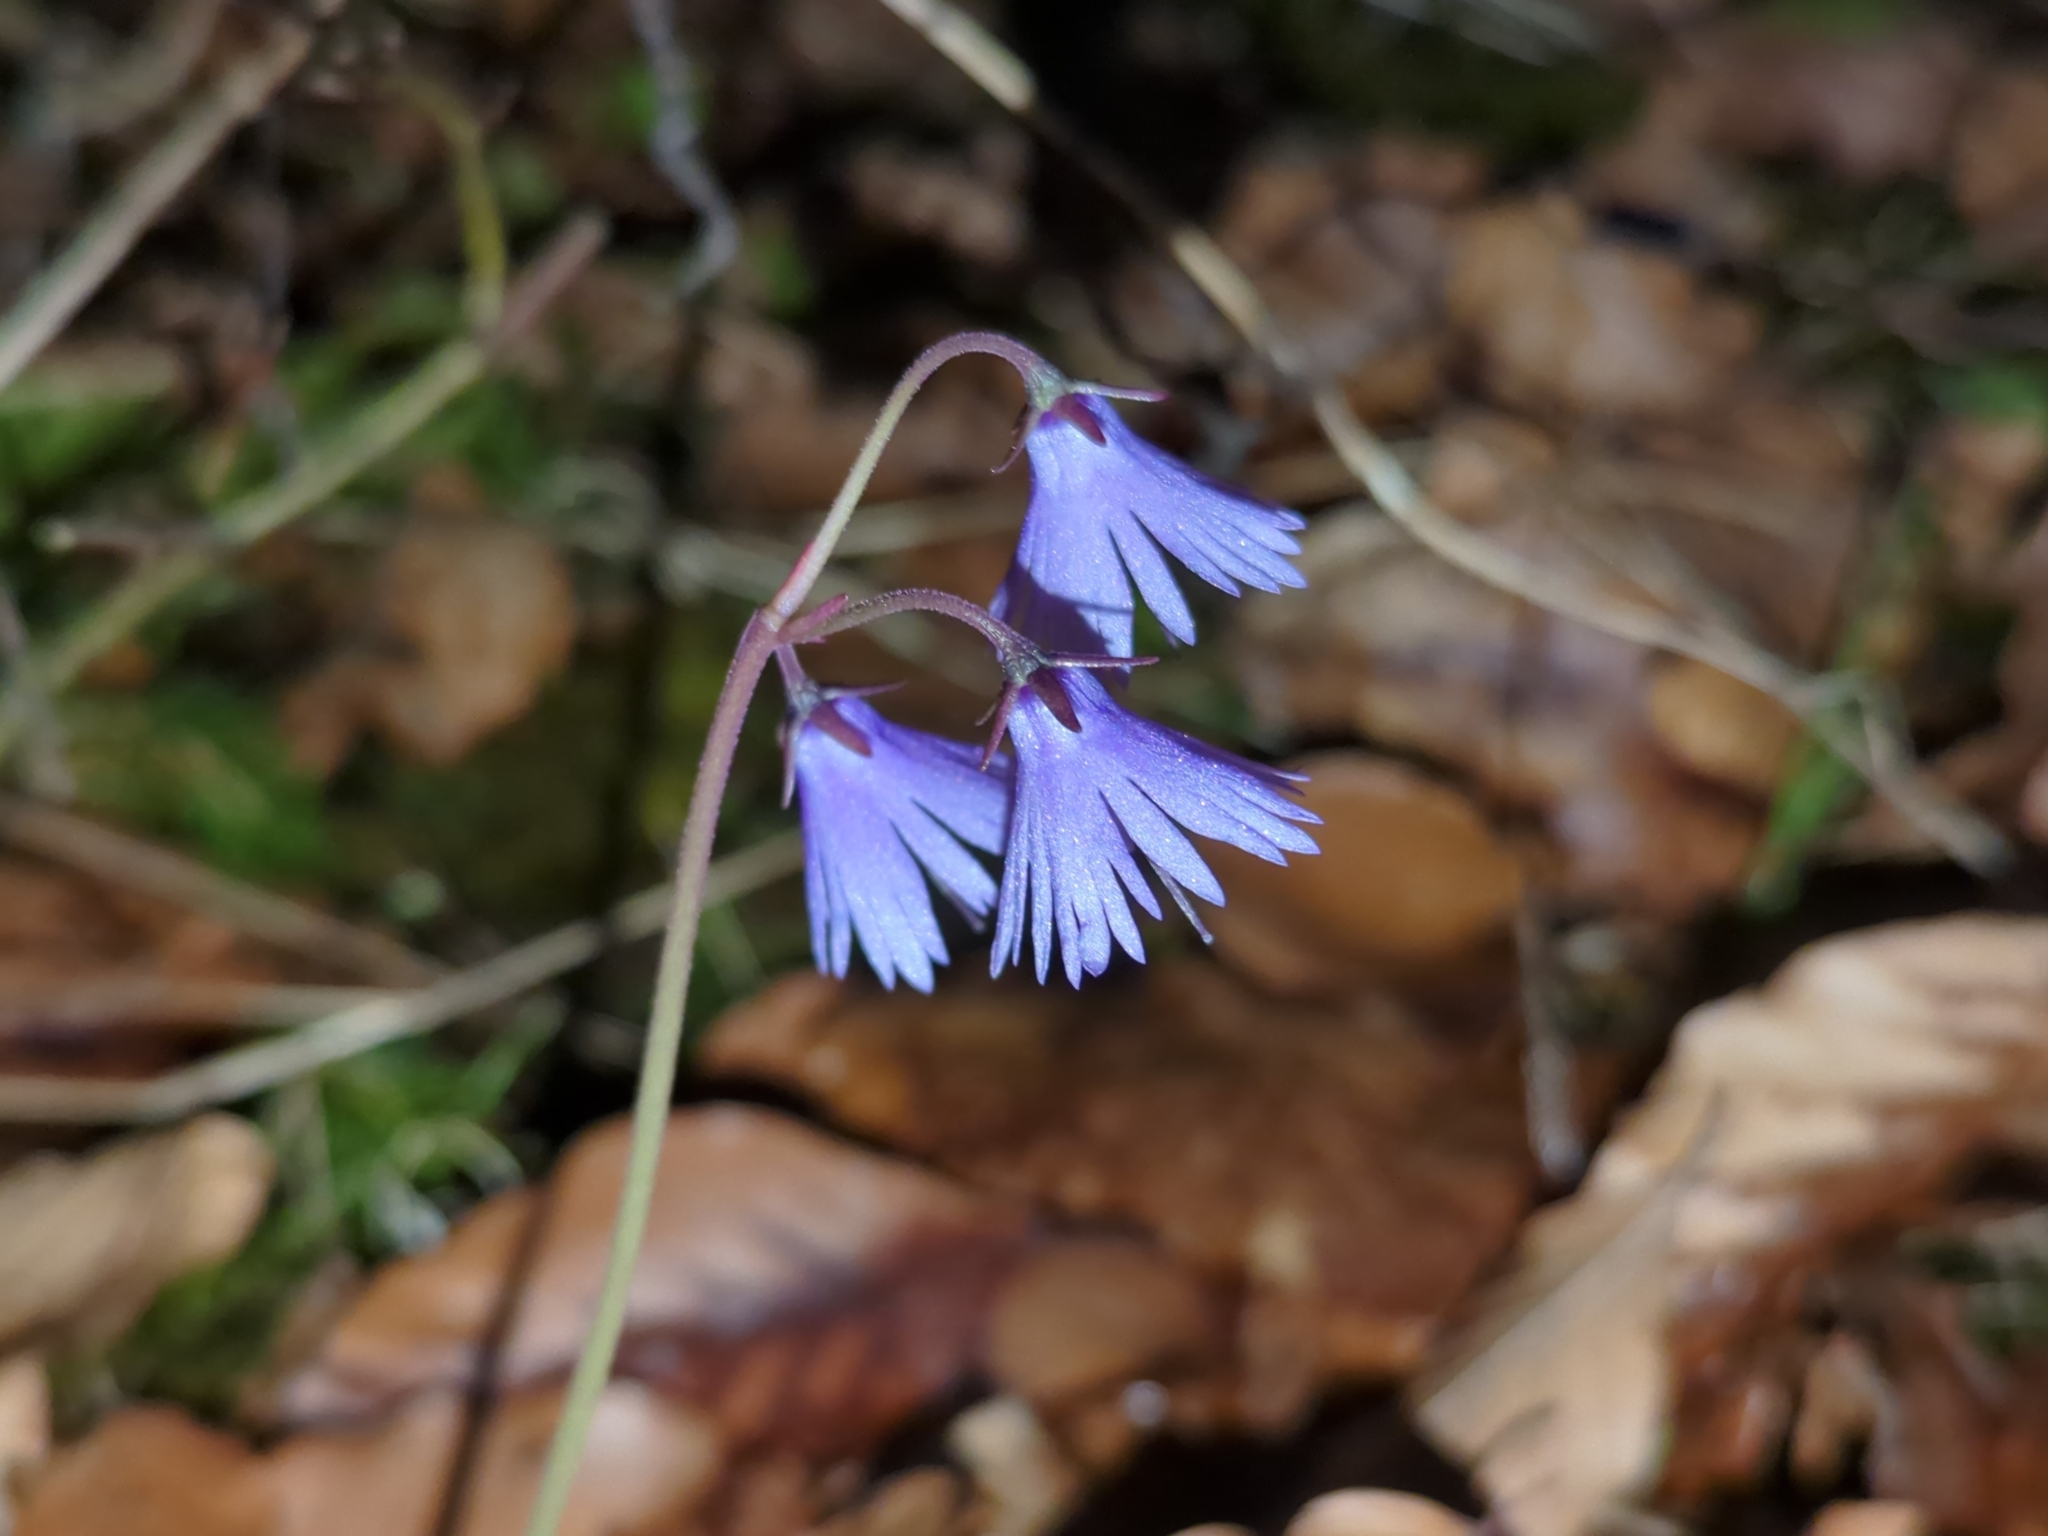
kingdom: Plantae
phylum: Tracheophyta
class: Magnoliopsida
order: Ericales
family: Primulaceae
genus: Soldanella
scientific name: Soldanella montana
